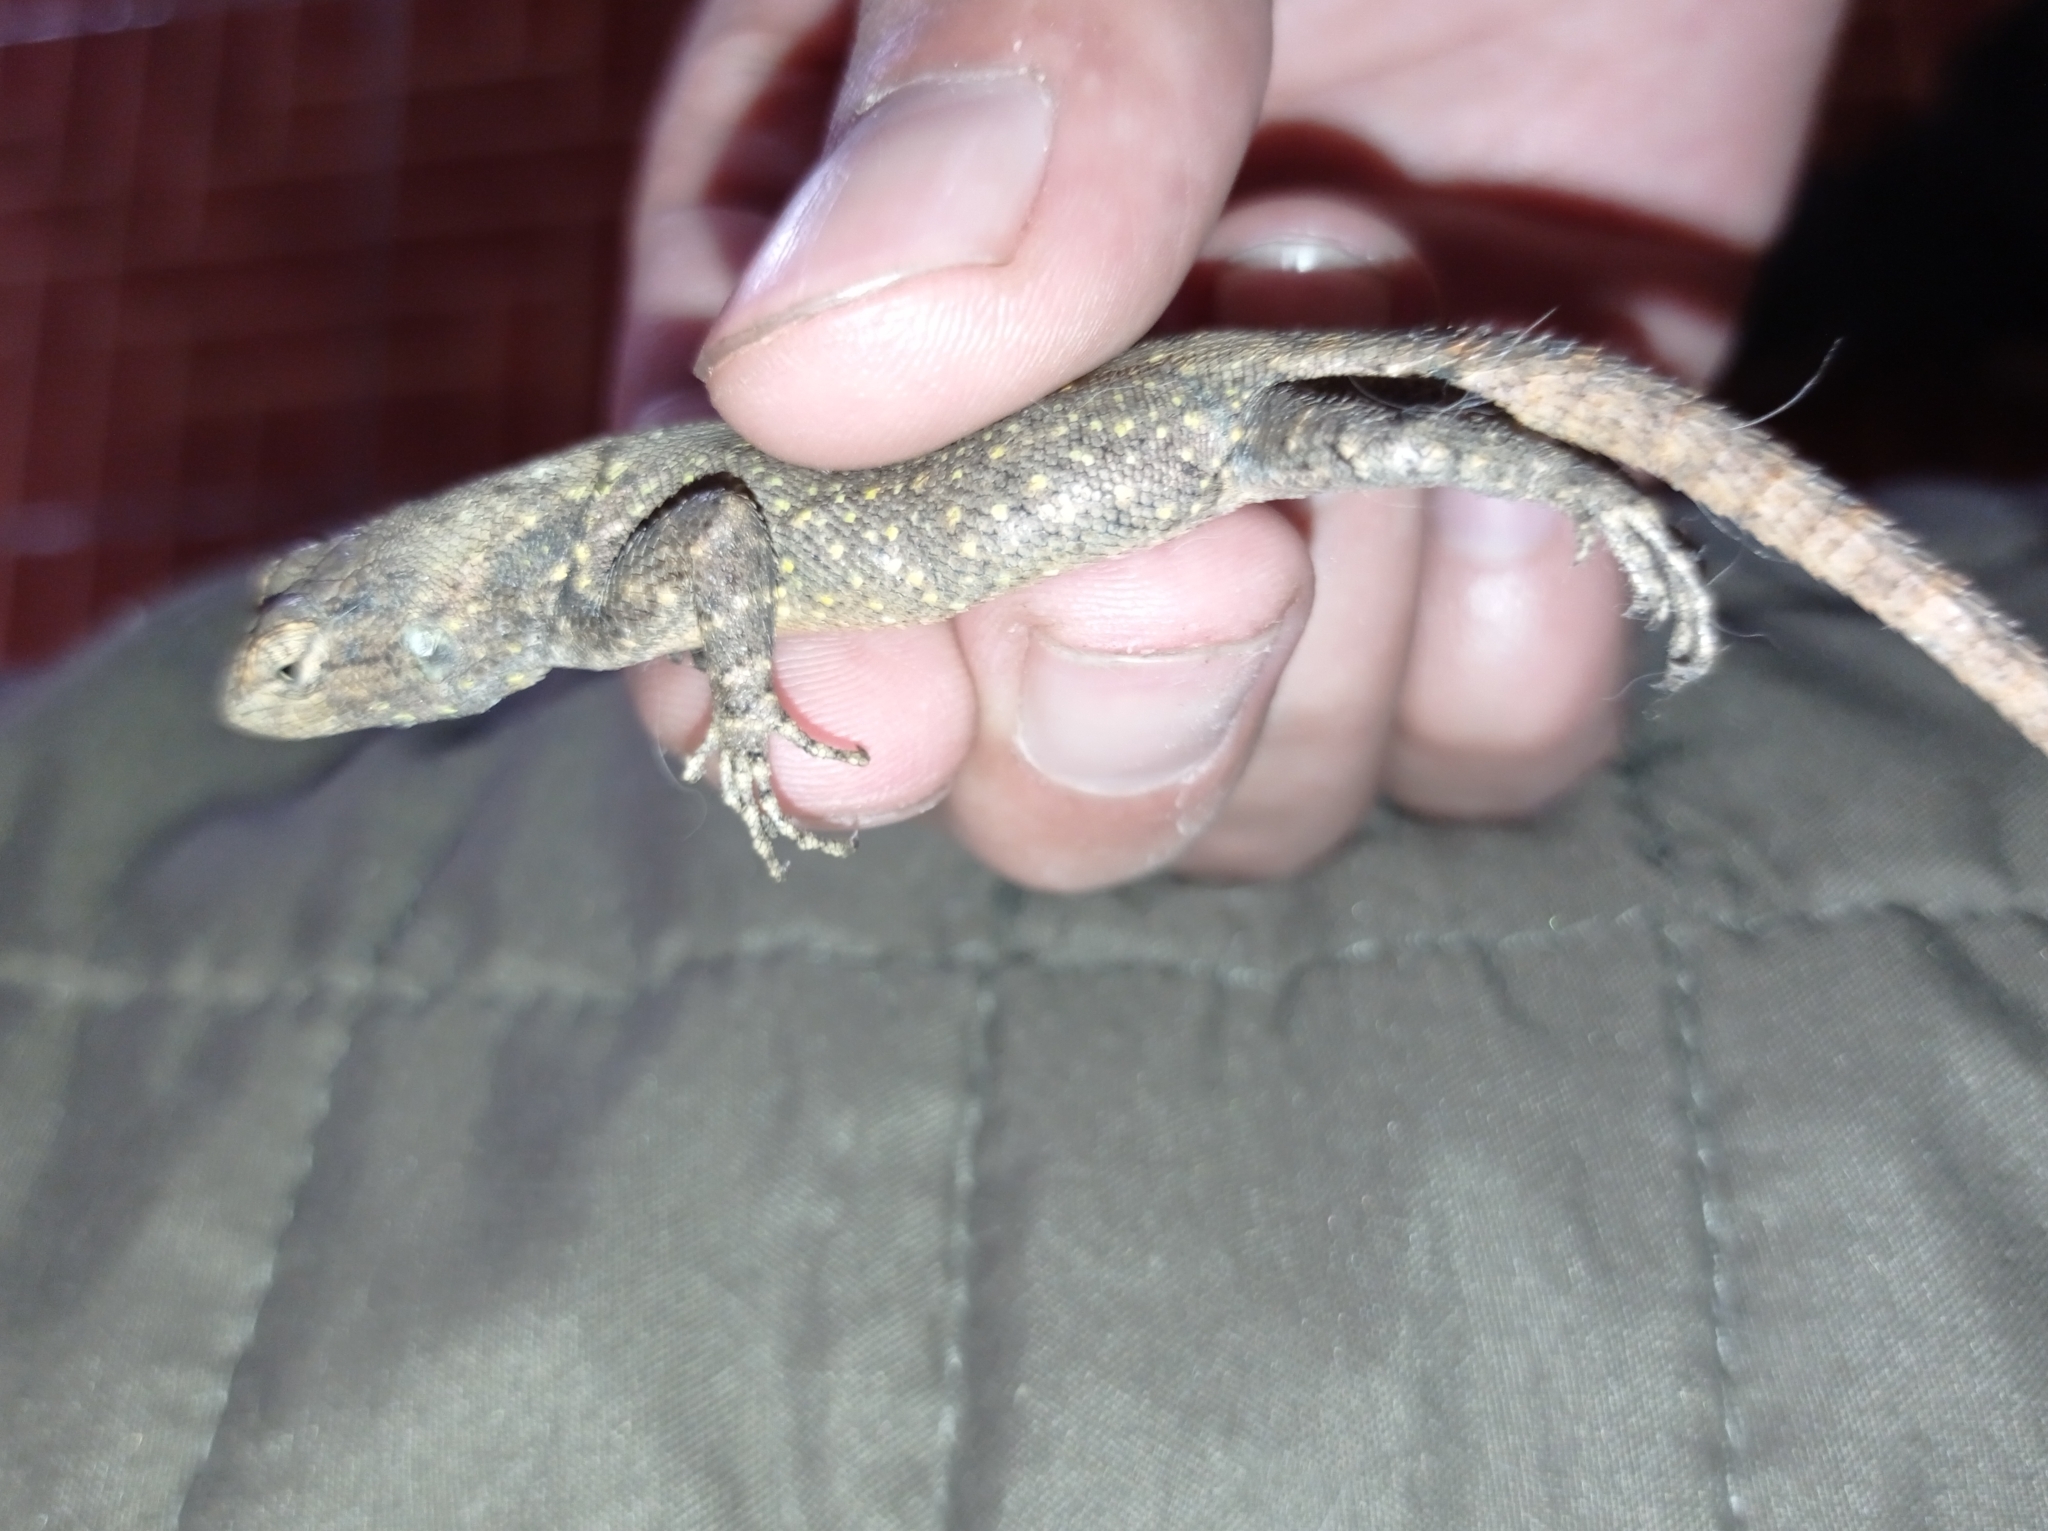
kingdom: Animalia
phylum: Chordata
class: Squamata
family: Phrynosomatidae
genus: Sceloporus
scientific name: Sceloporus grammicus
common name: Mesquite lizard
